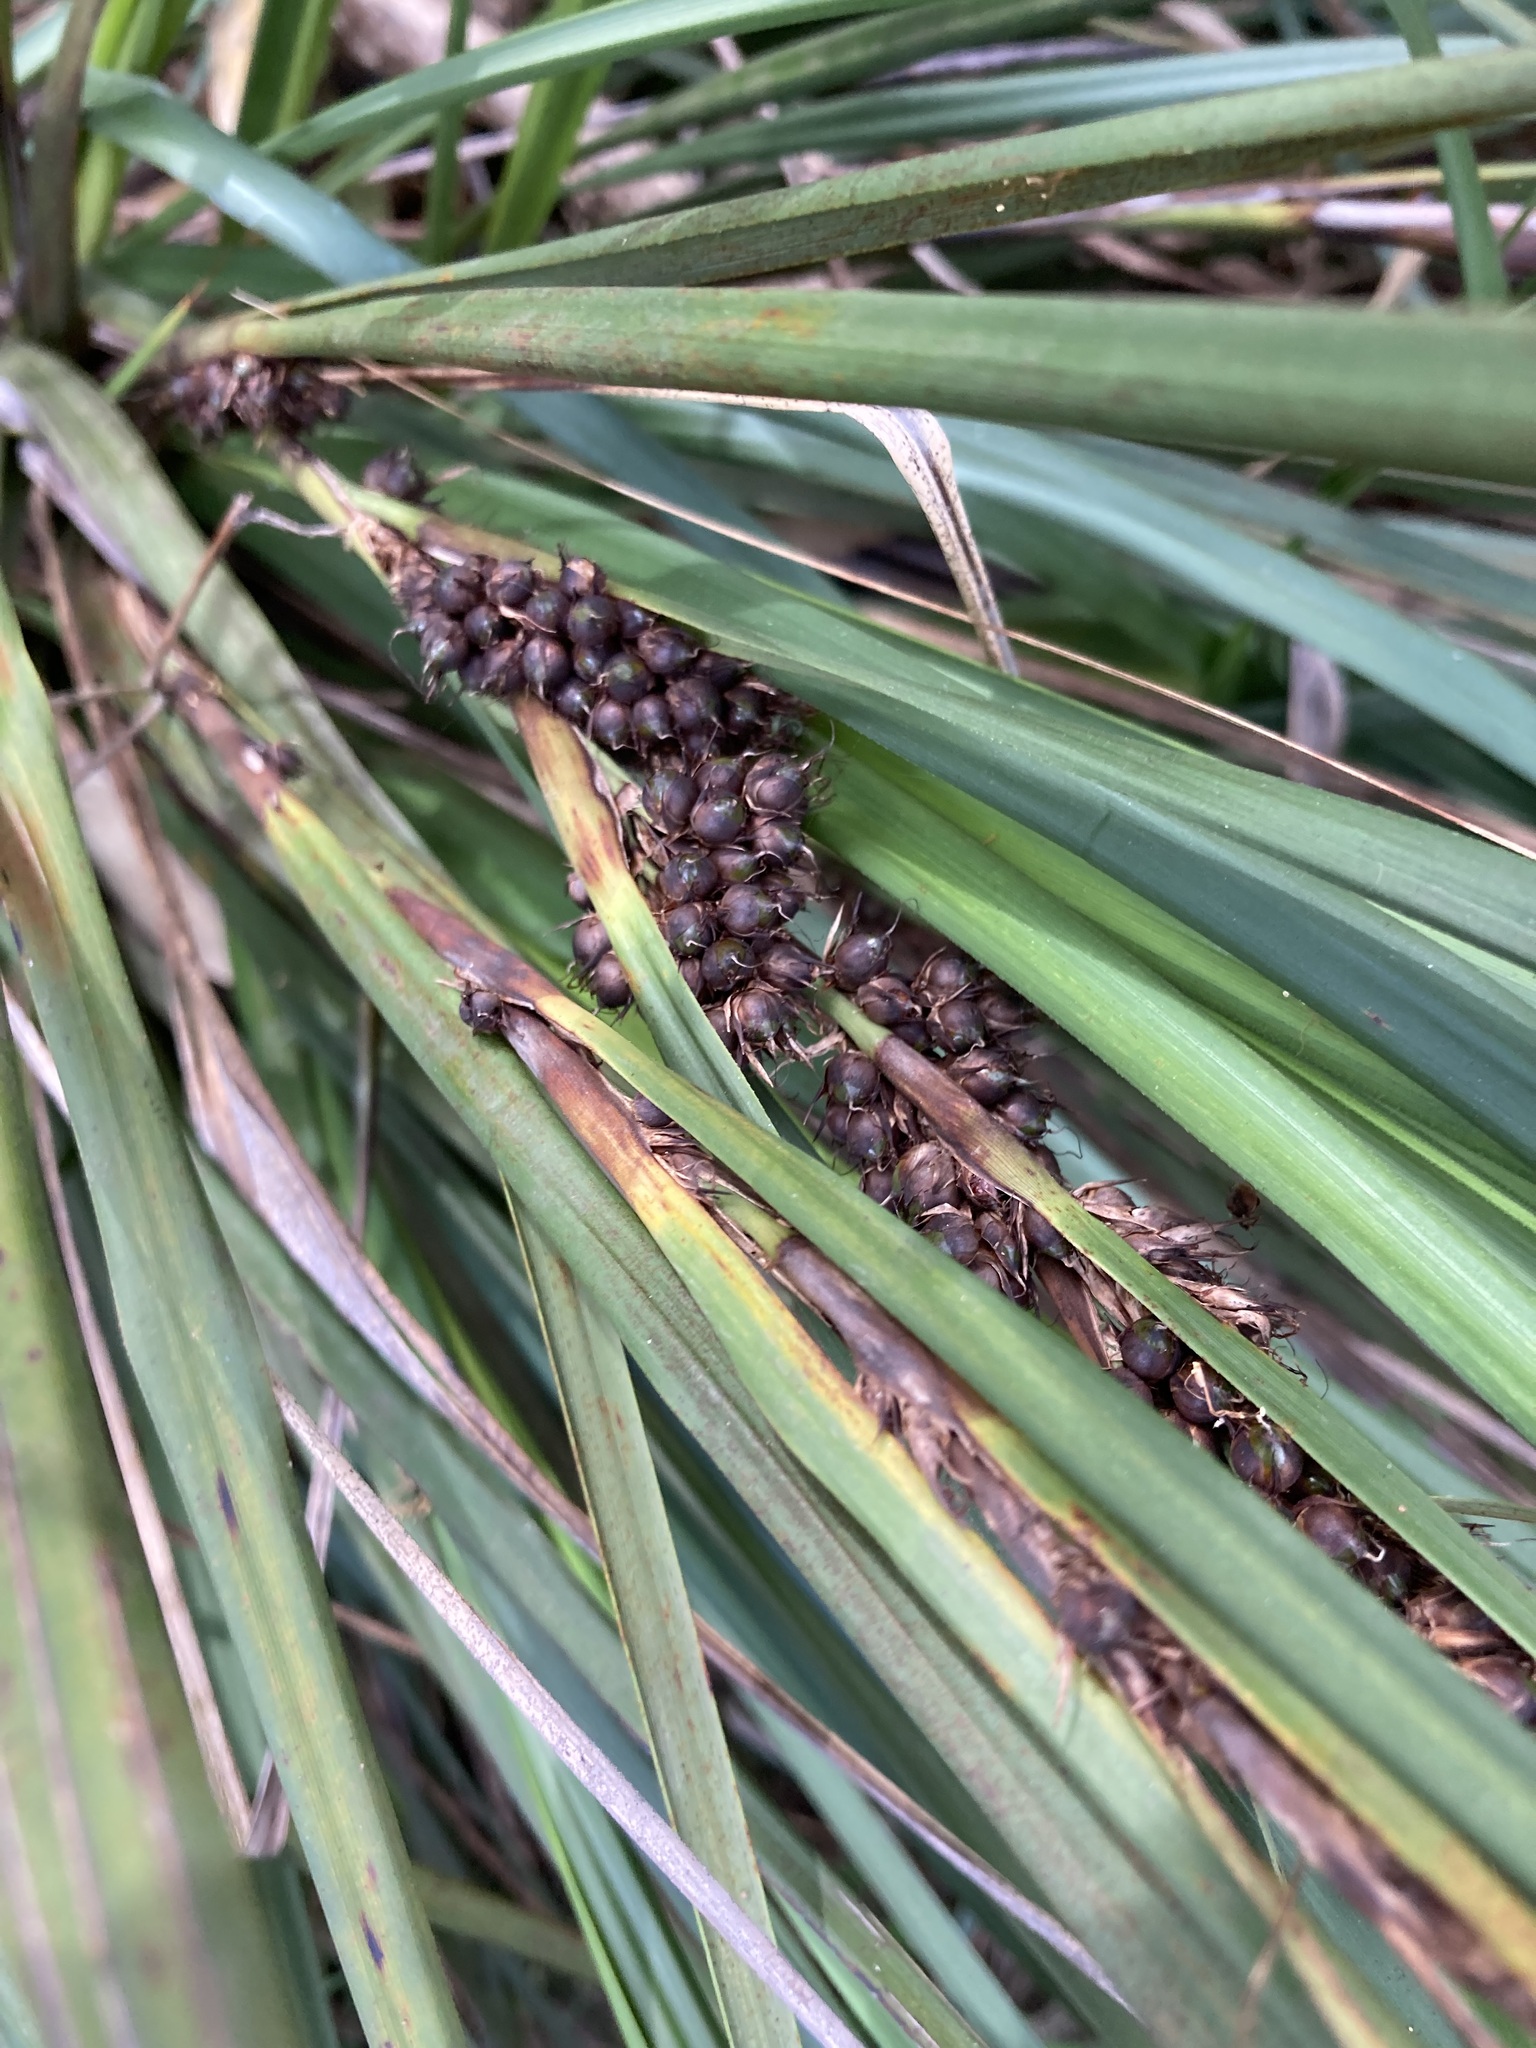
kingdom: Plantae
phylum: Tracheophyta
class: Liliopsida
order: Poales
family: Cyperaceae
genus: Gahnia
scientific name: Gahnia aspera
